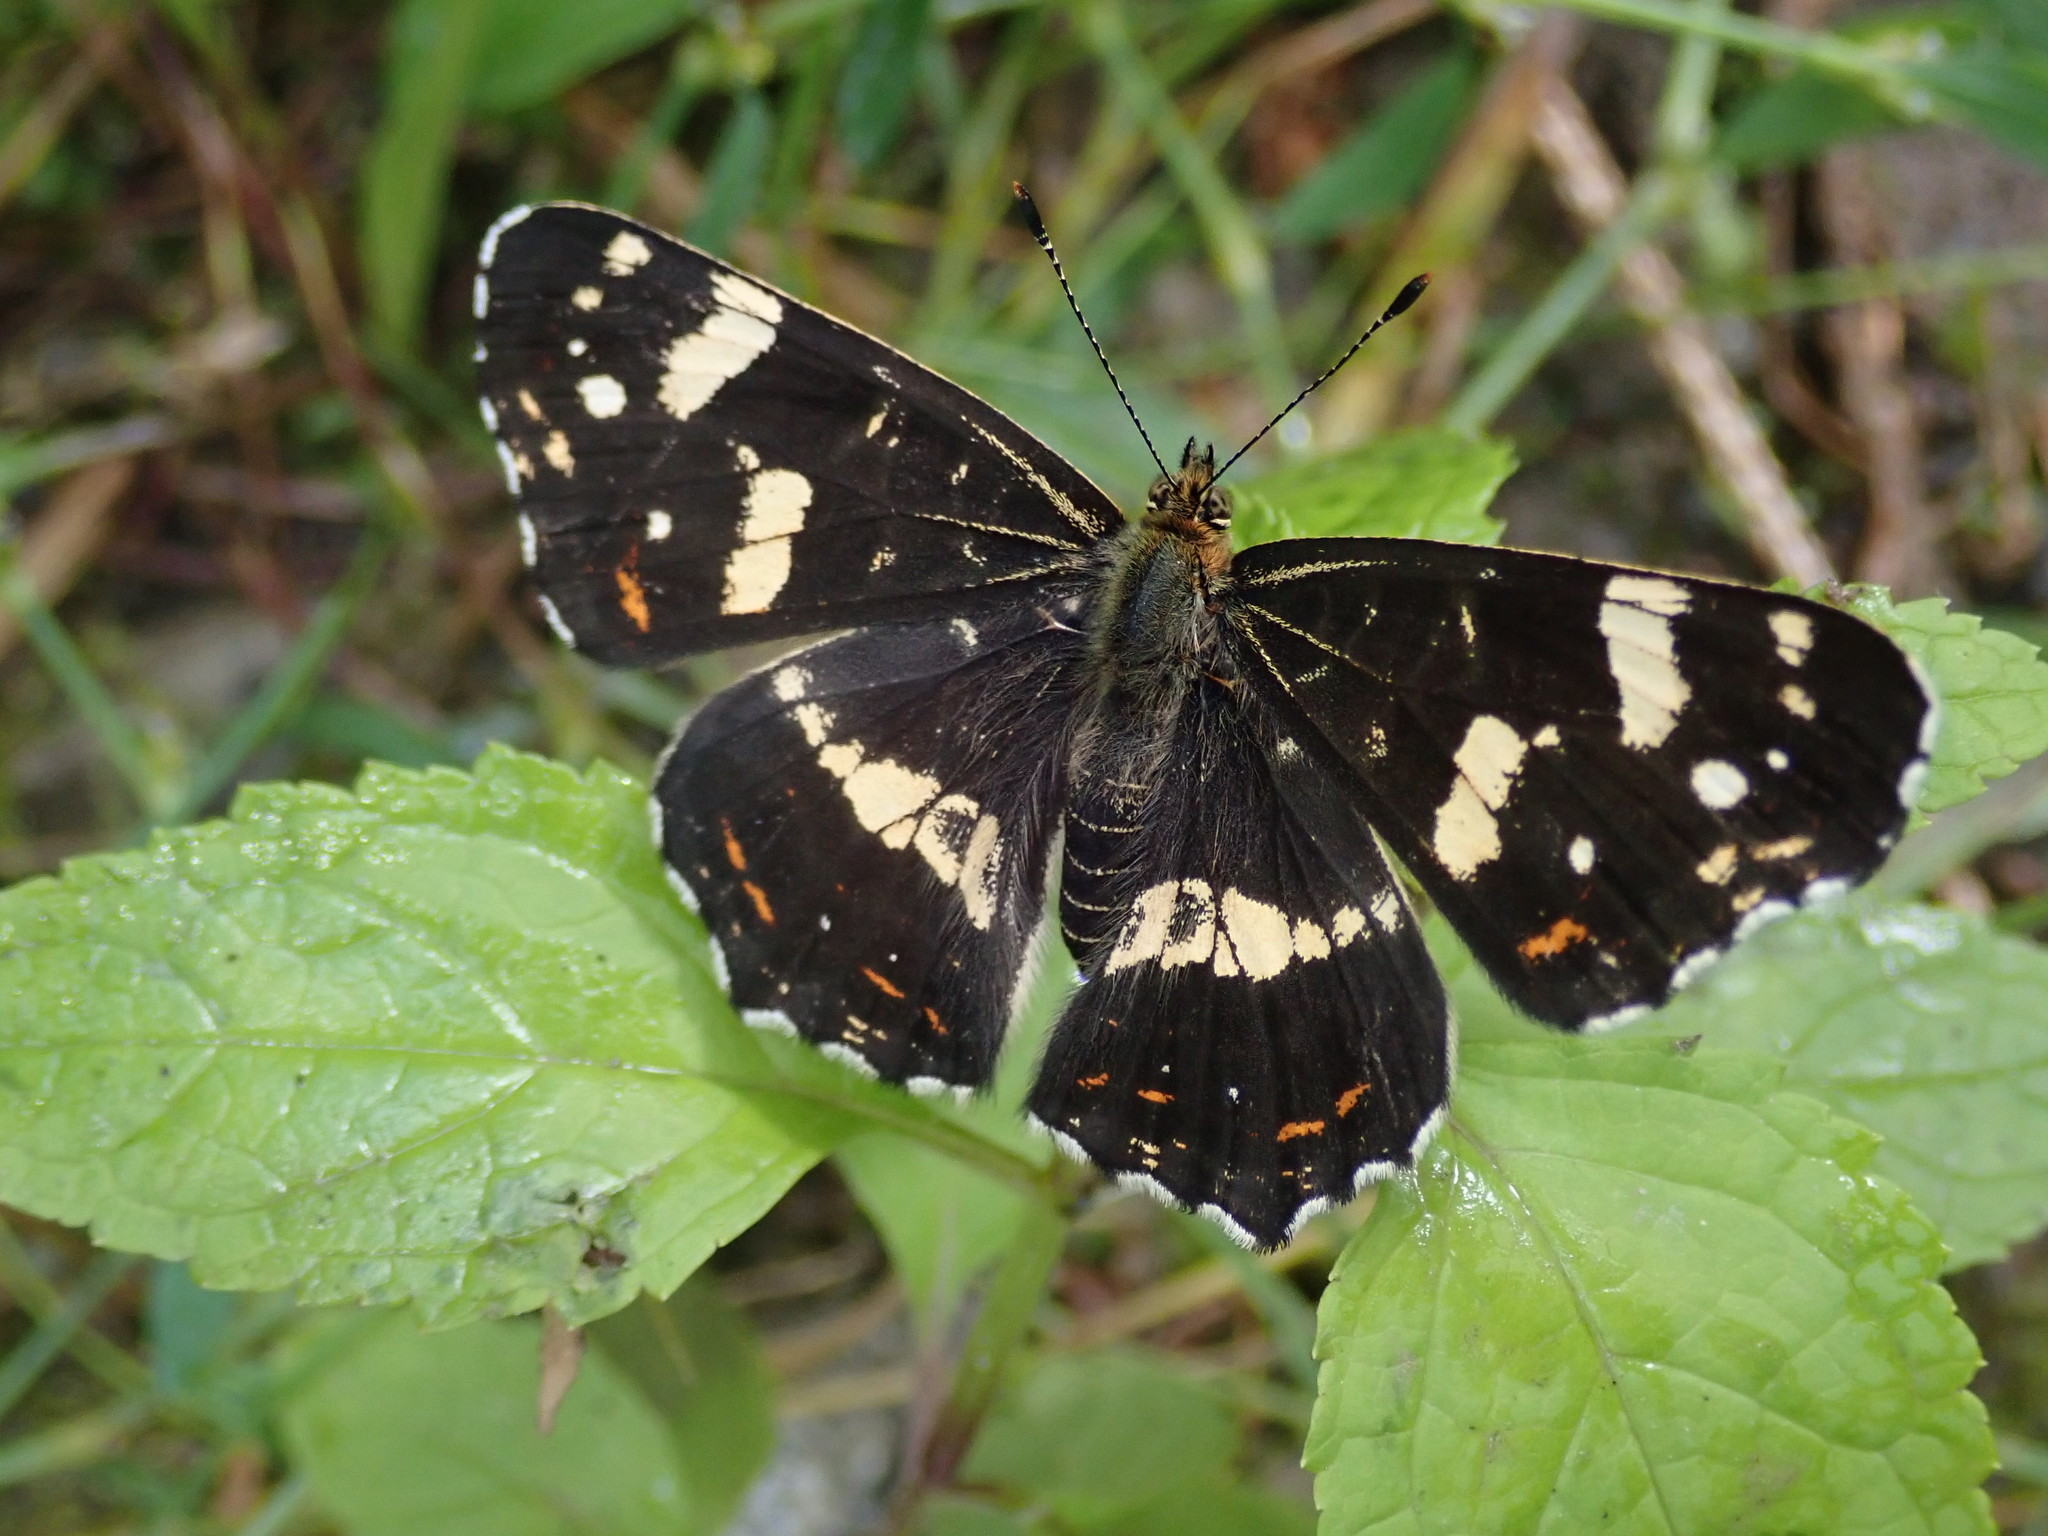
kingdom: Animalia
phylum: Arthropoda
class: Insecta
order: Lepidoptera
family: Nymphalidae
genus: Araschnia
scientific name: Araschnia levana
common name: Map butterfly
